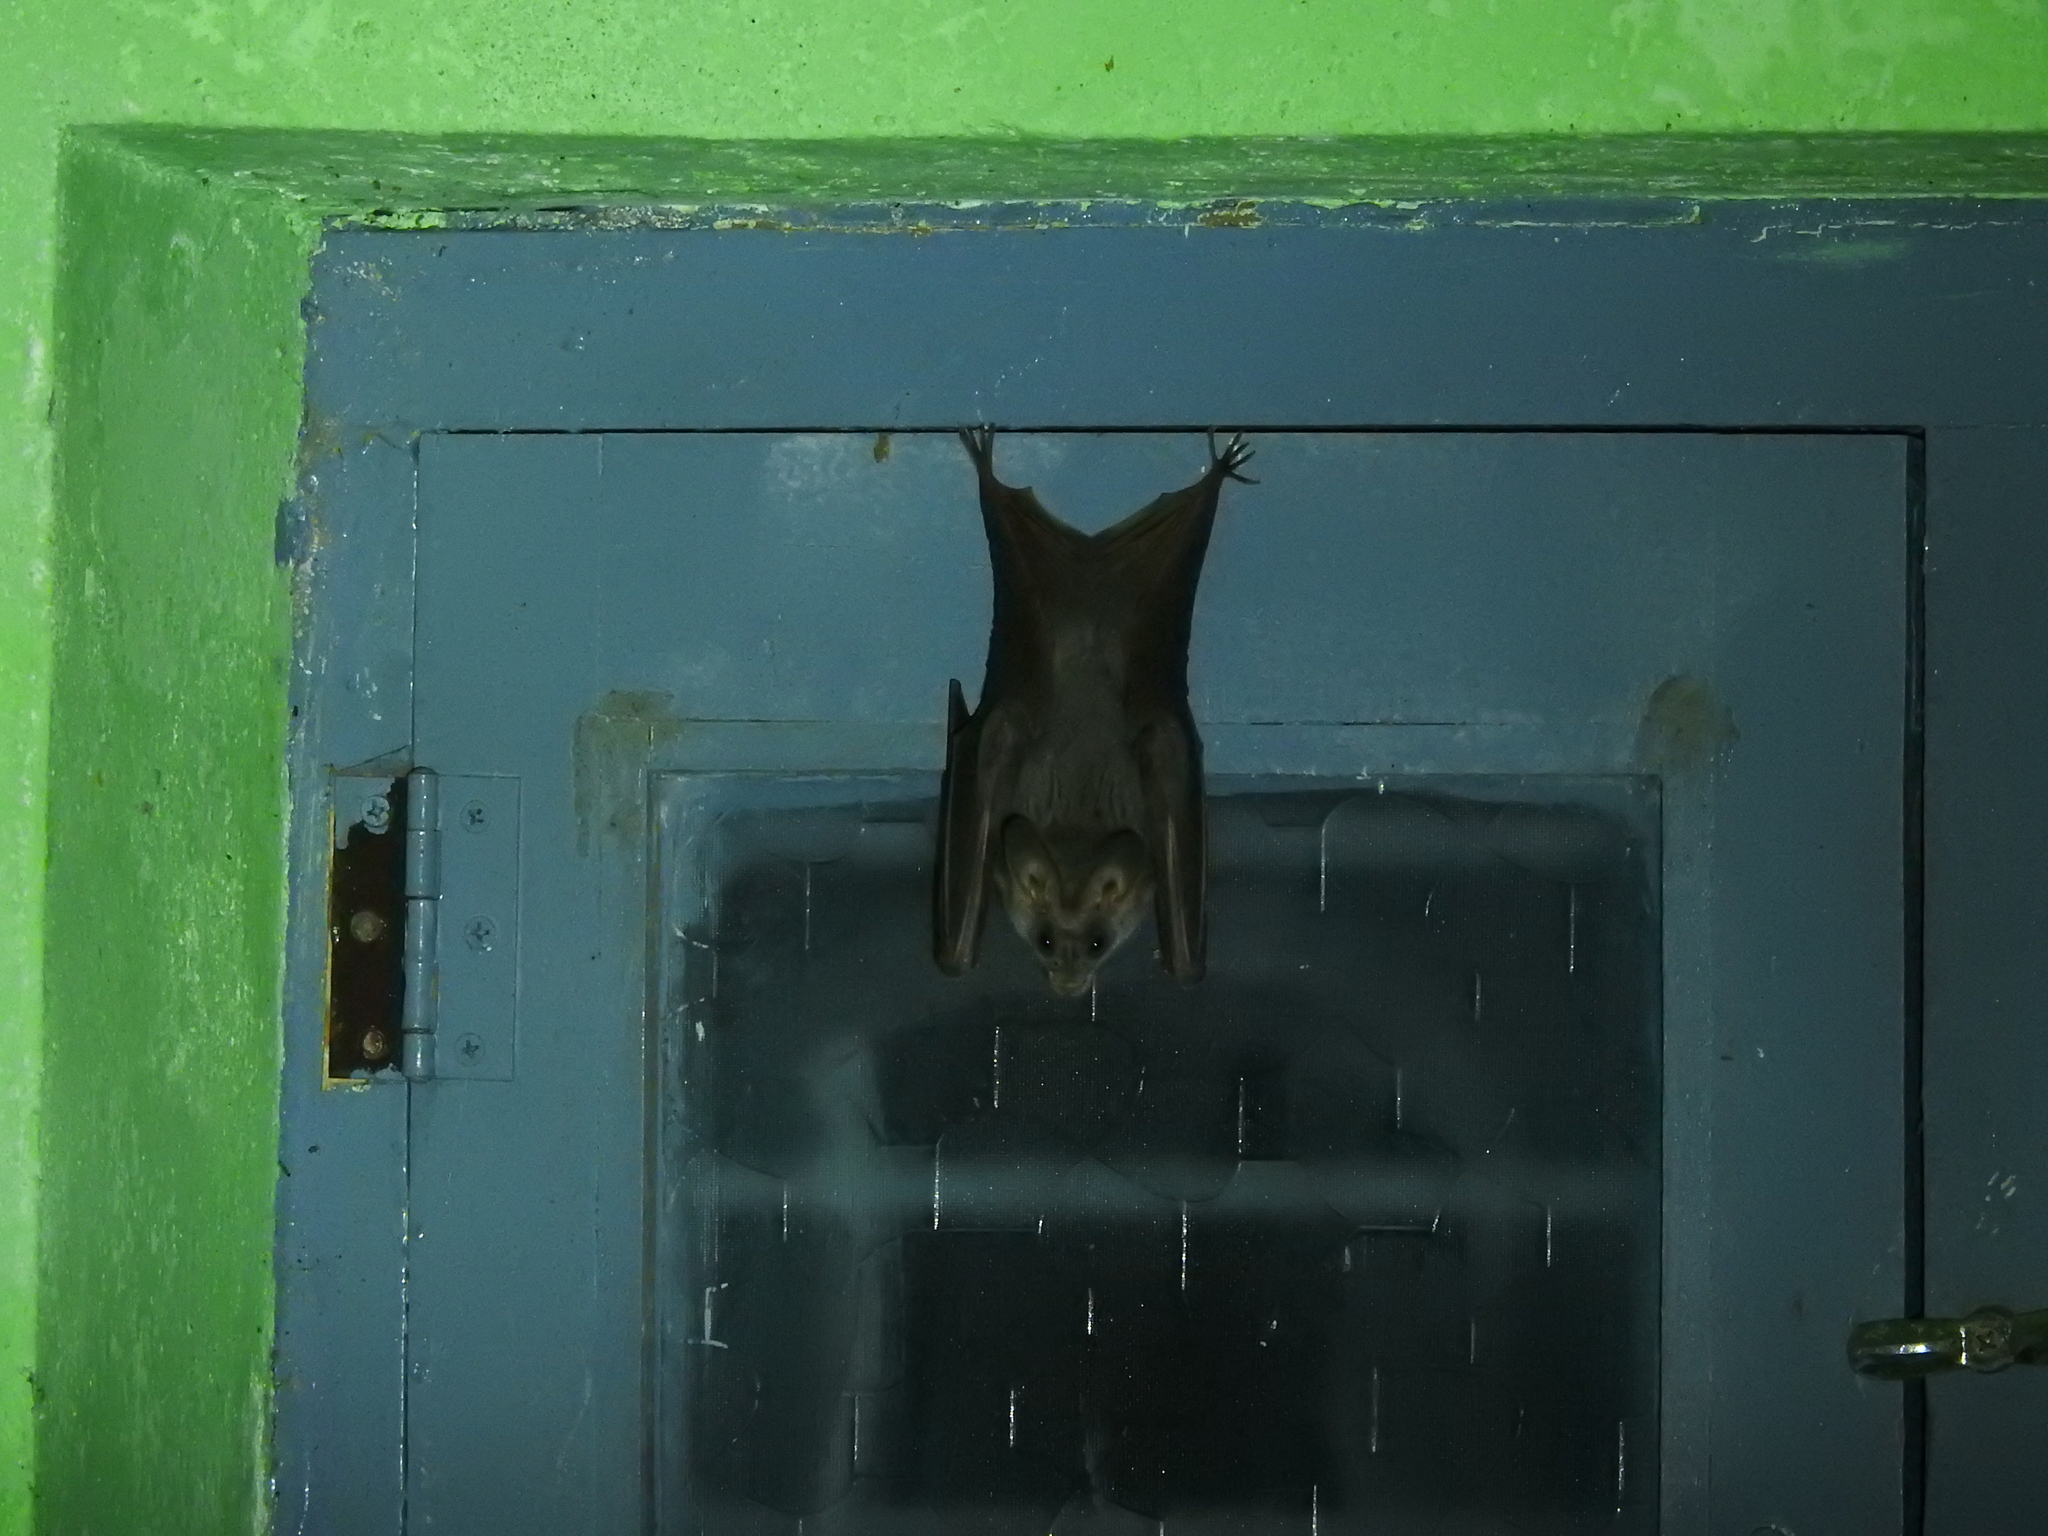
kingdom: Animalia
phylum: Chordata
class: Mammalia
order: Chiroptera
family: Megadermatidae
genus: Lyroderma
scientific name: Lyroderma lyra
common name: Greater false vampire bat
